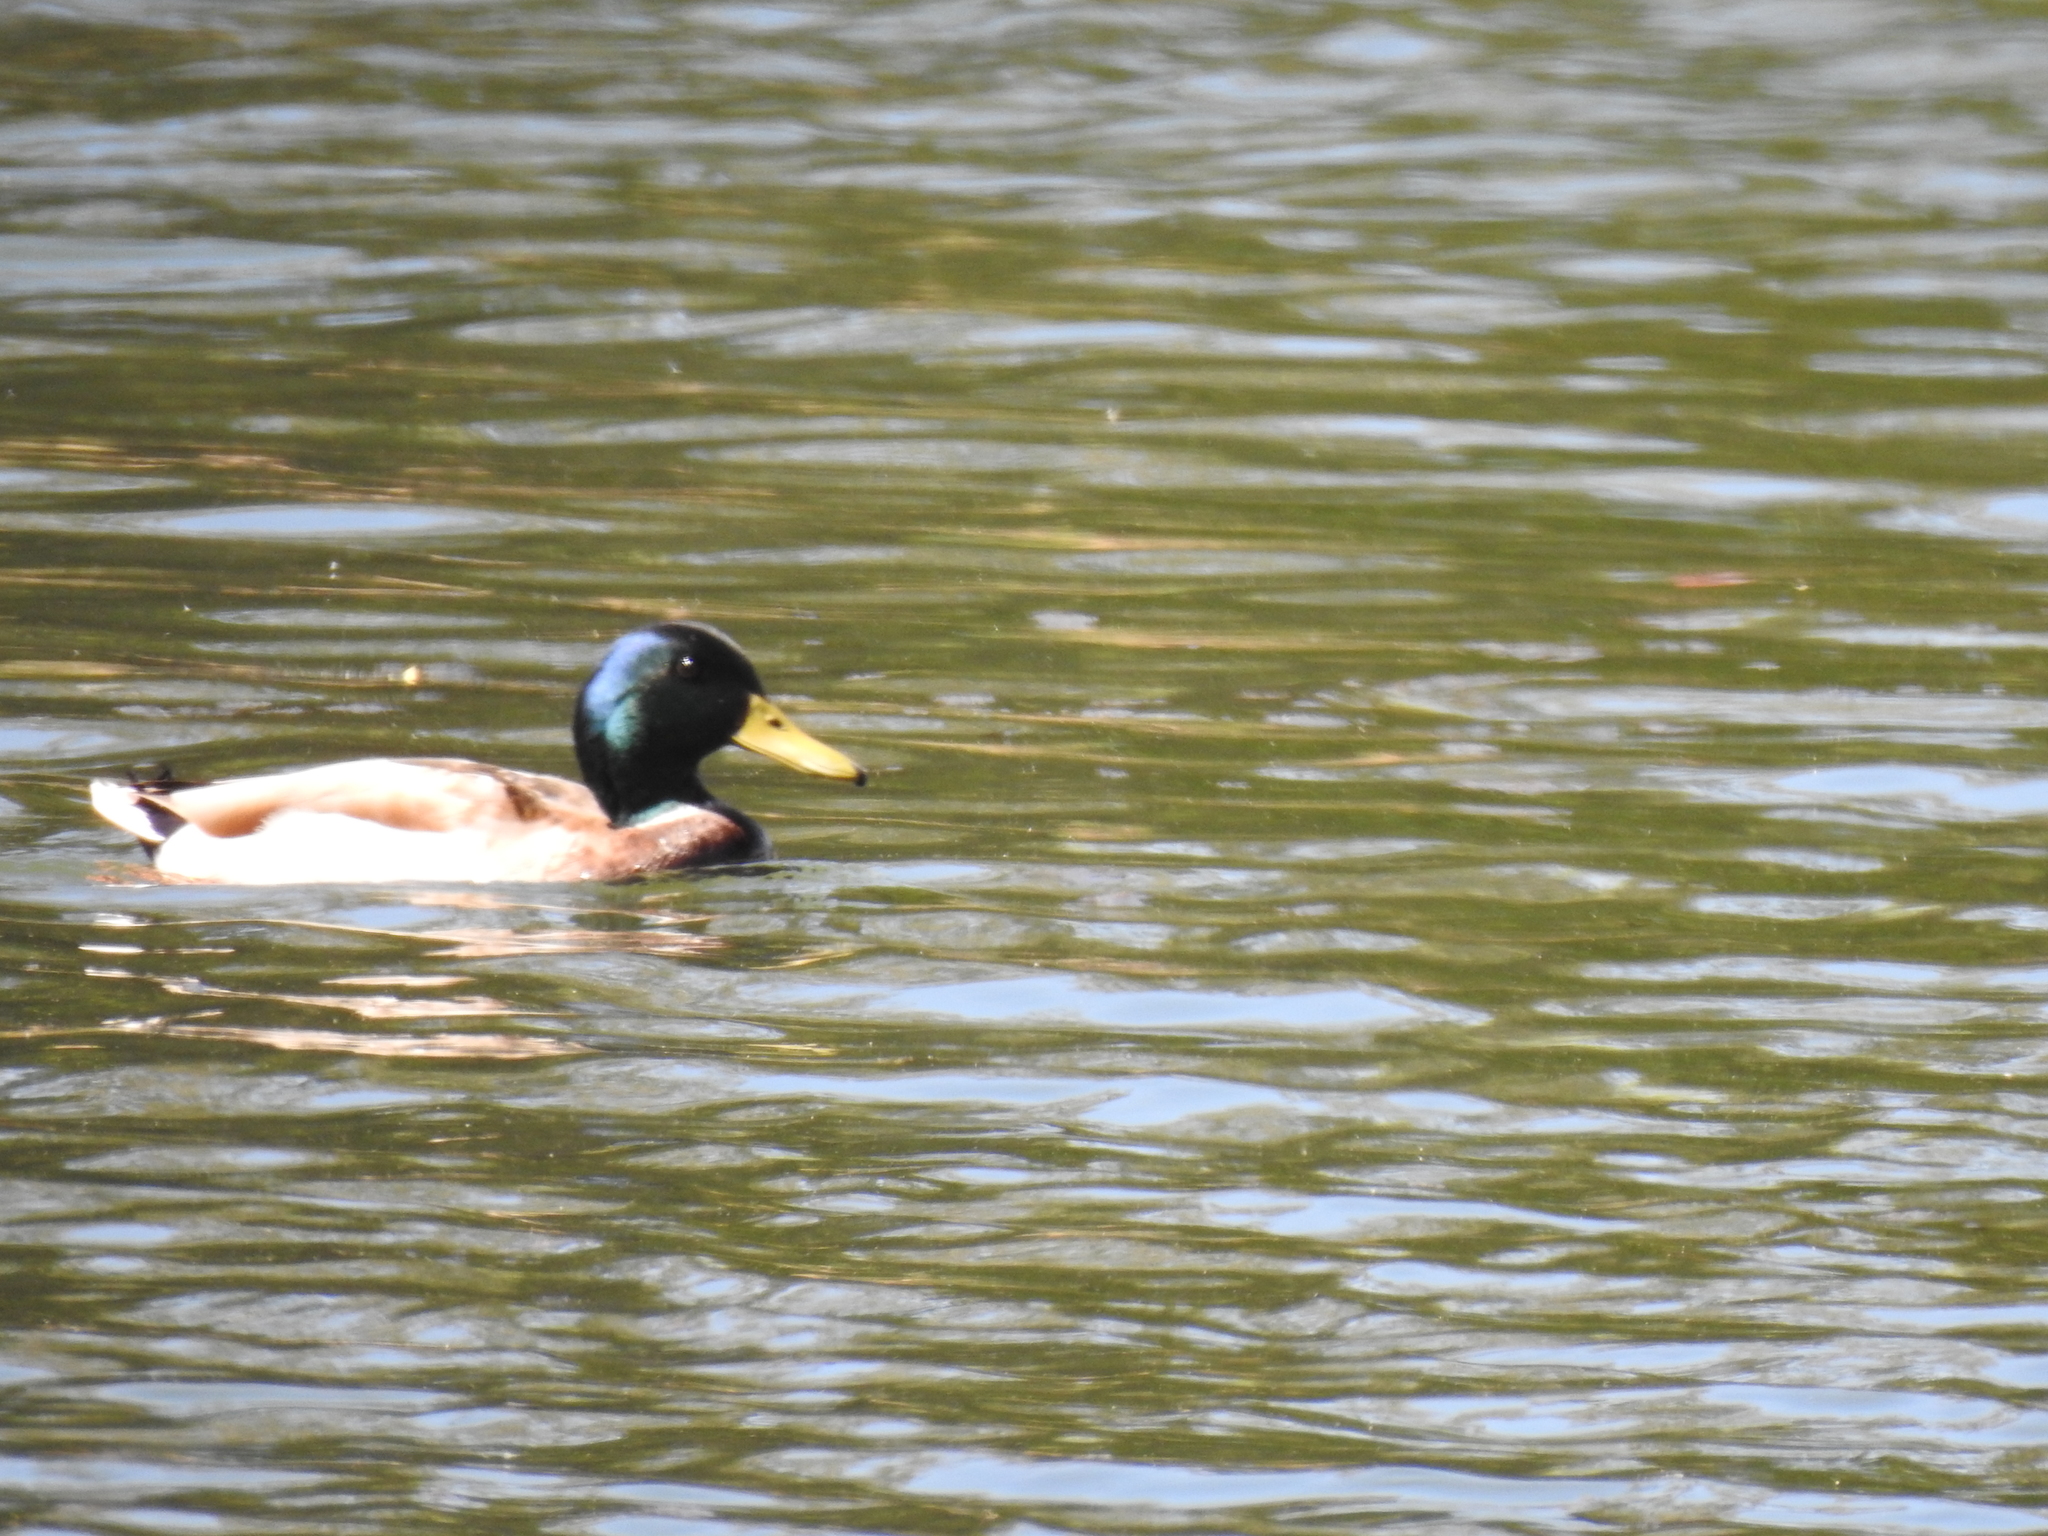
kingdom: Animalia
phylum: Chordata
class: Aves
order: Anseriformes
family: Anatidae
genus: Anas
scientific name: Anas platyrhynchos
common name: Mallard
